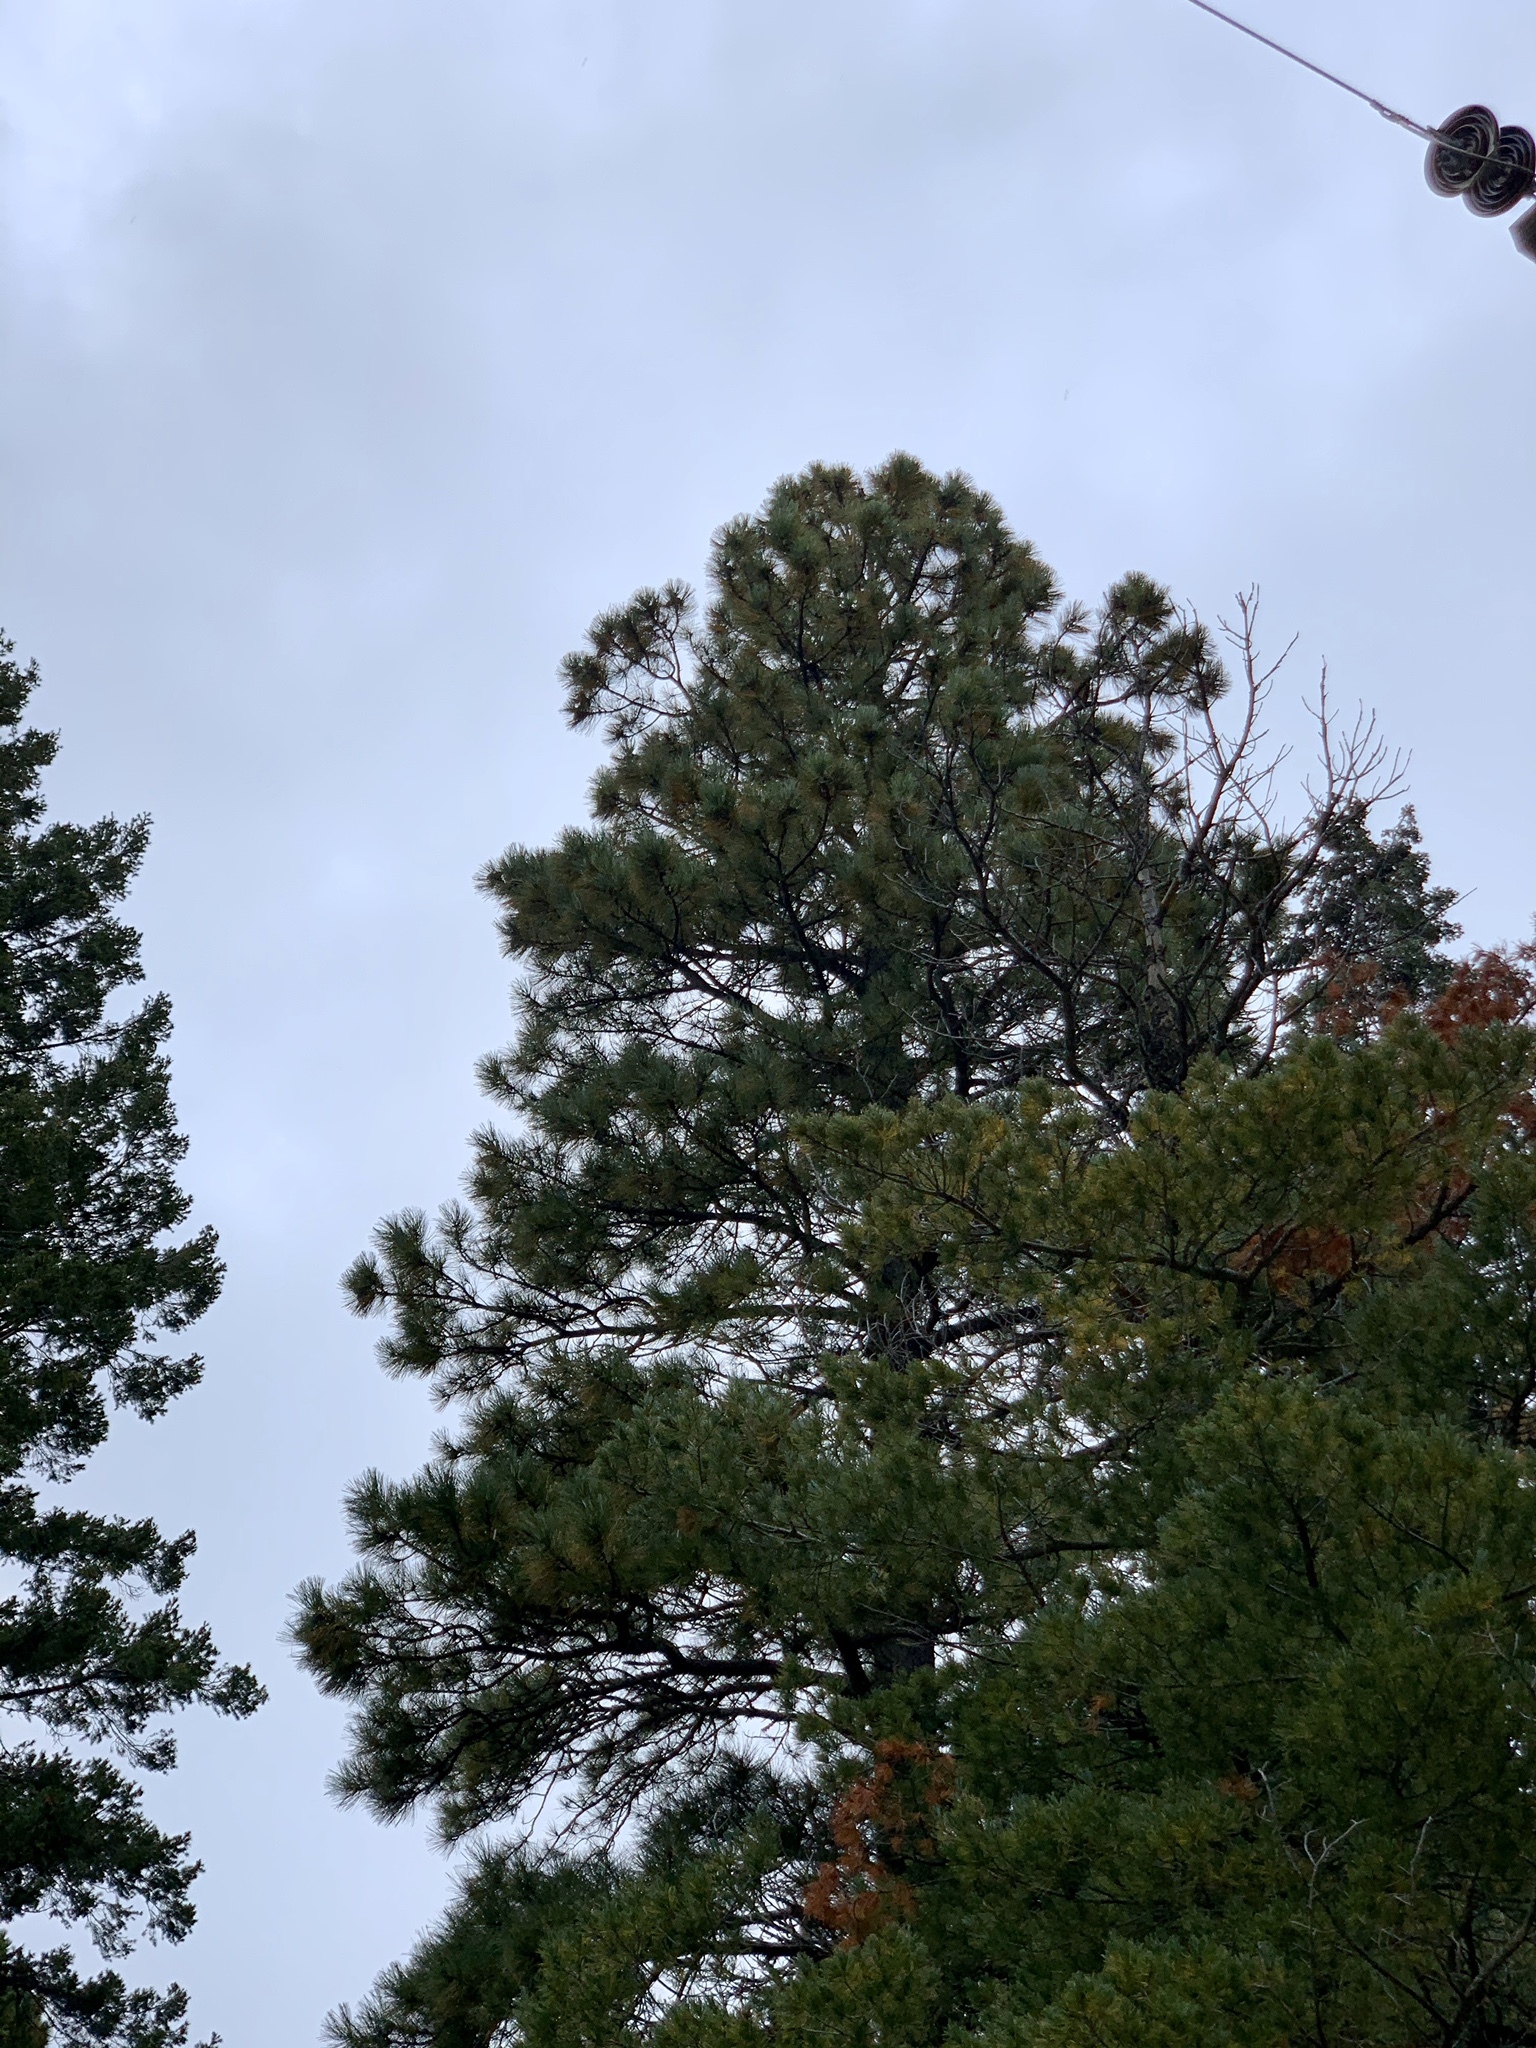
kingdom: Plantae
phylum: Tracheophyta
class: Pinopsida
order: Pinales
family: Pinaceae
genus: Pinus
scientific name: Pinus ponderosa
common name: Western yellow-pine
